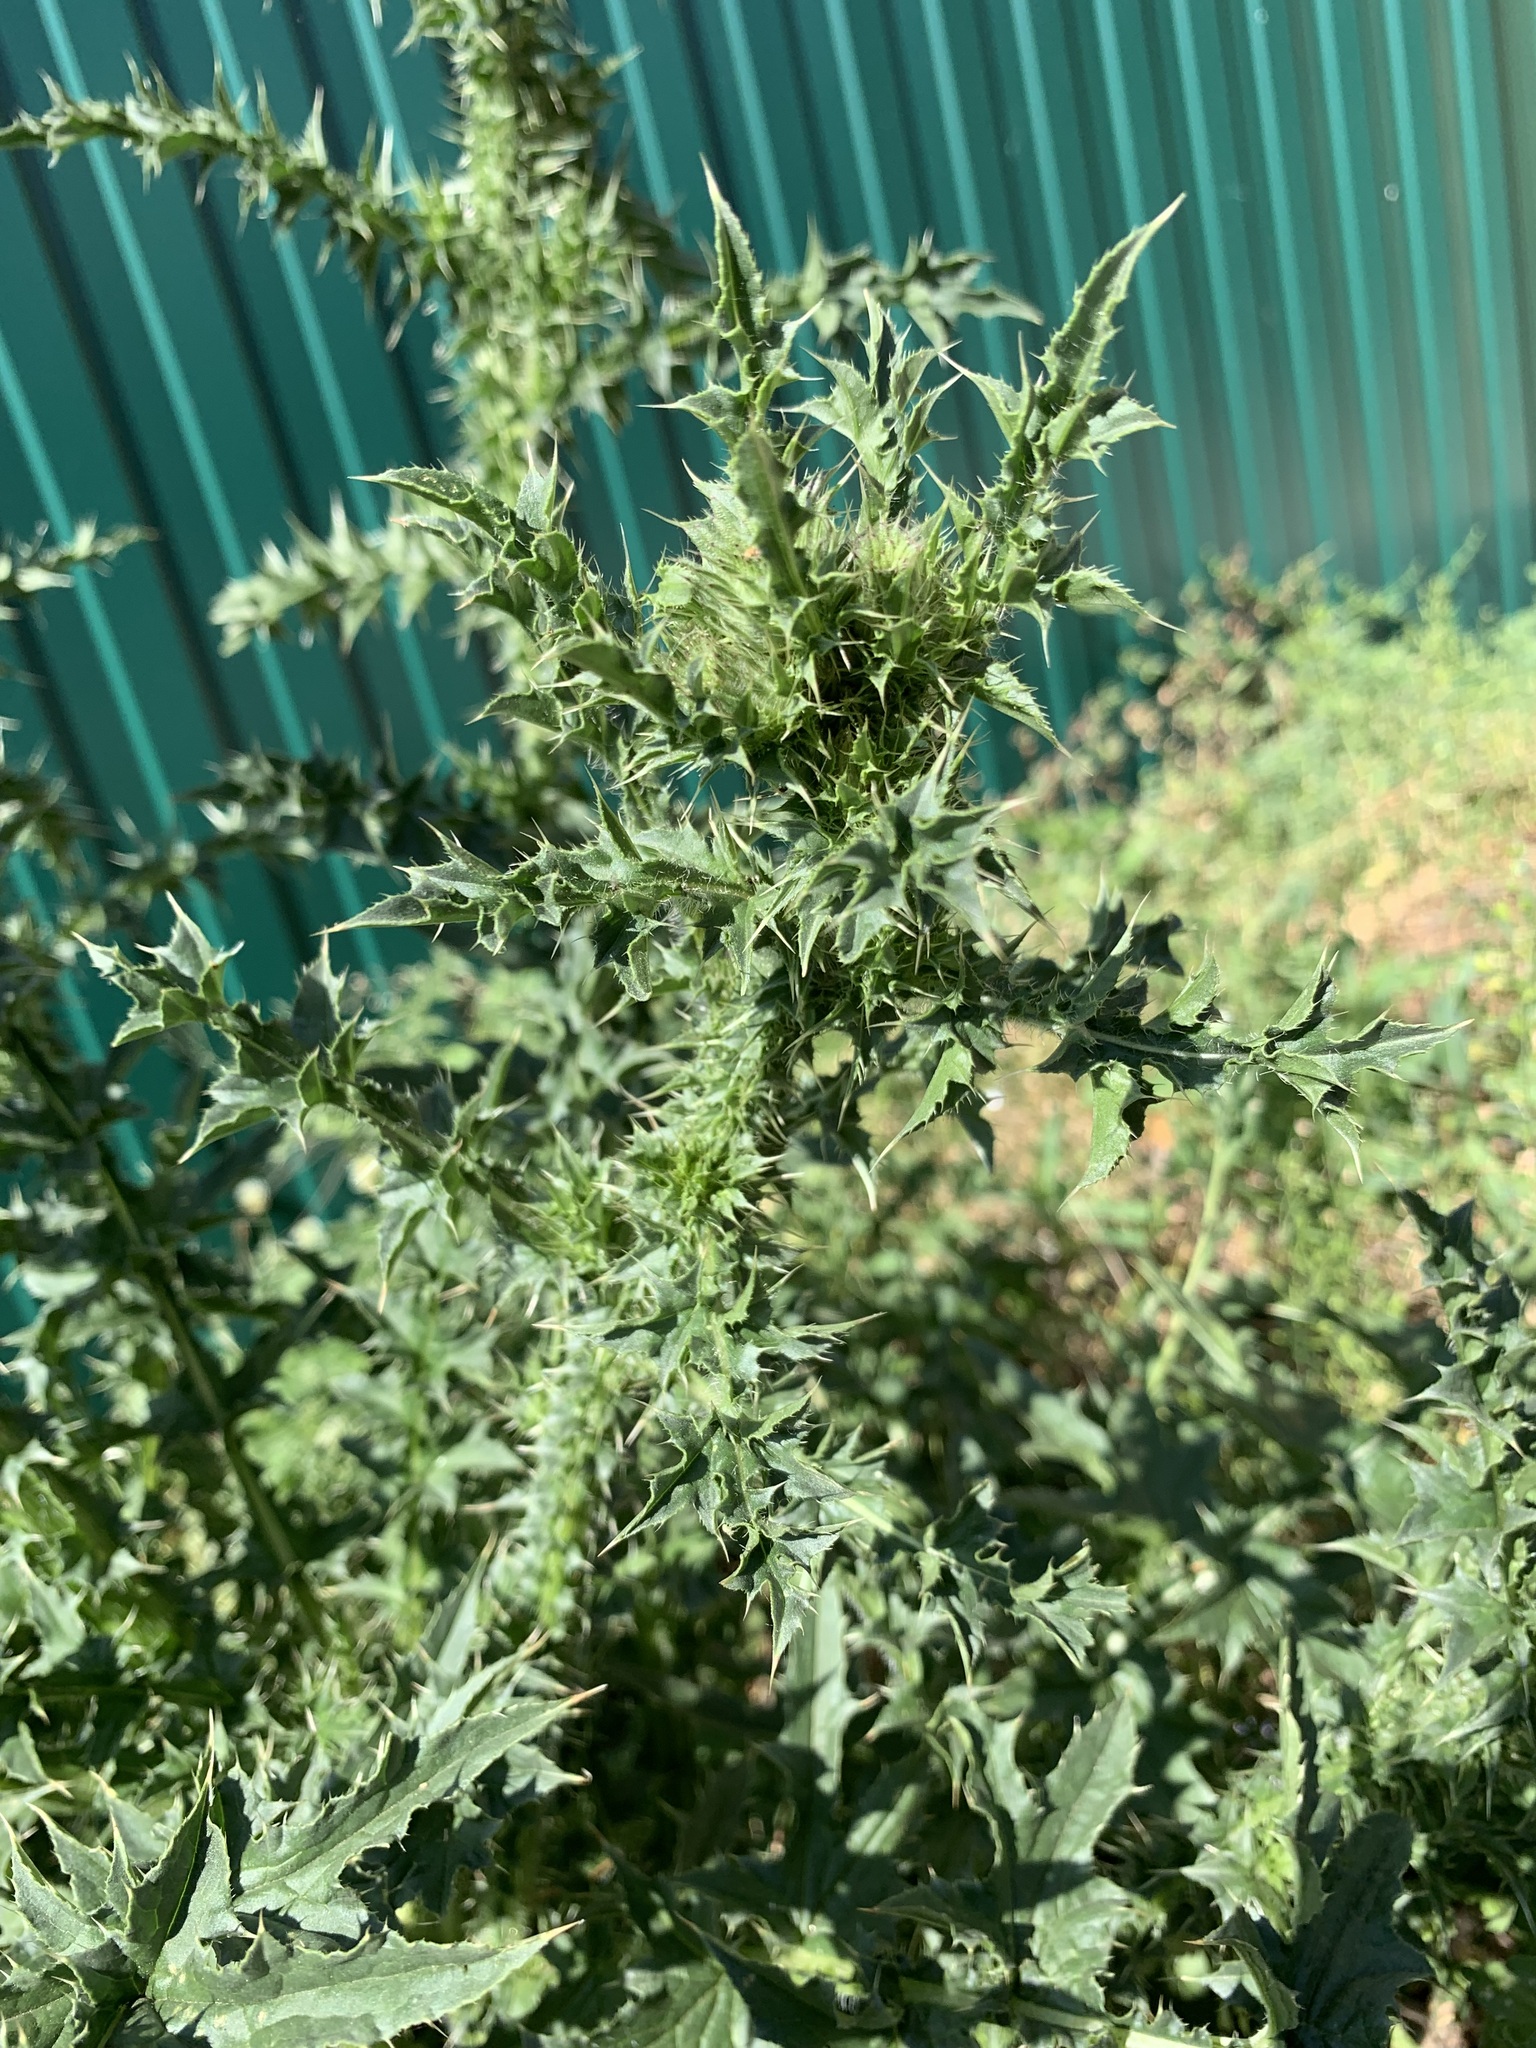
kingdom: Plantae
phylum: Tracheophyta
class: Magnoliopsida
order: Asterales
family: Asteraceae
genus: Carduus
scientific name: Carduus acanthoides
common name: Plumeless thistle
